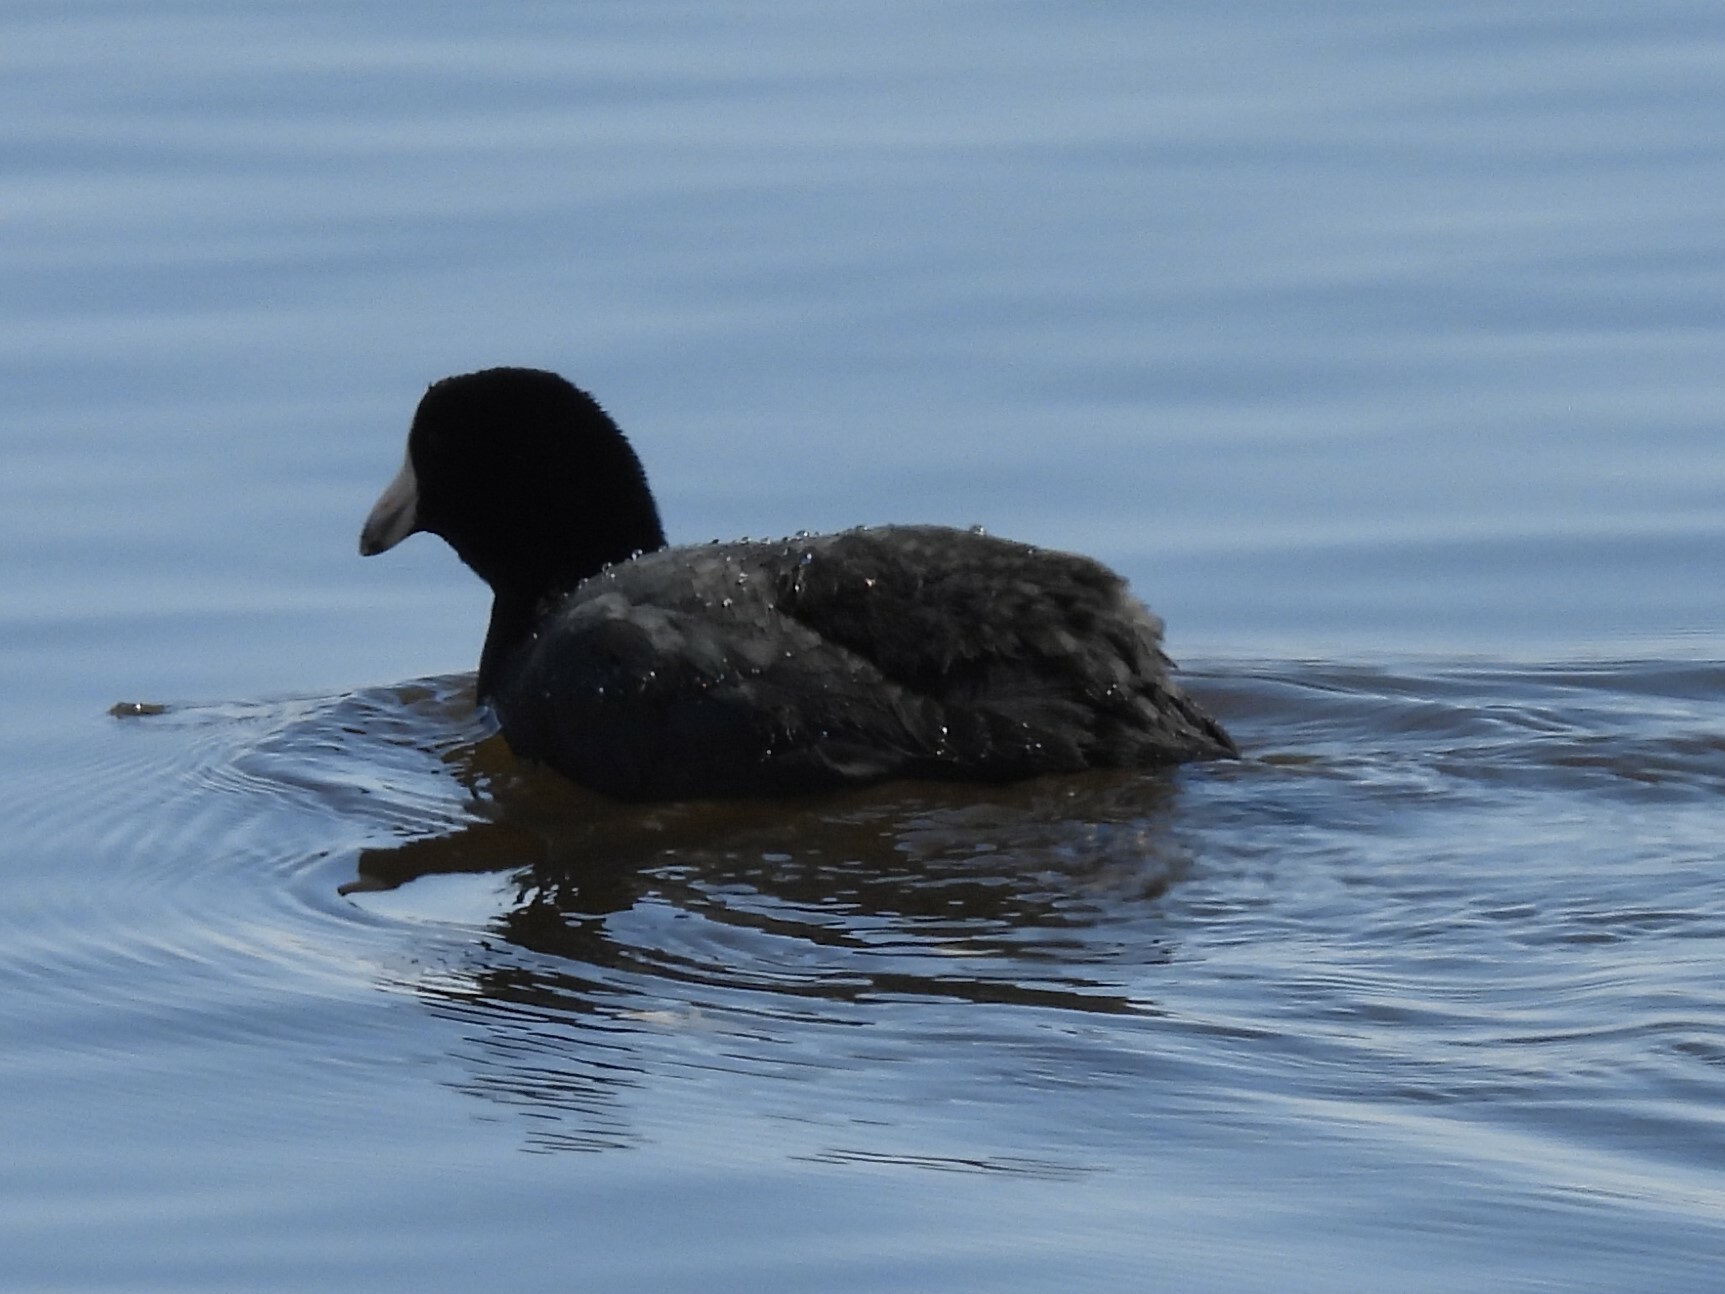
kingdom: Animalia
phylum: Chordata
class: Aves
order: Gruiformes
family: Rallidae
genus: Fulica
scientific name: Fulica americana
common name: American coot
